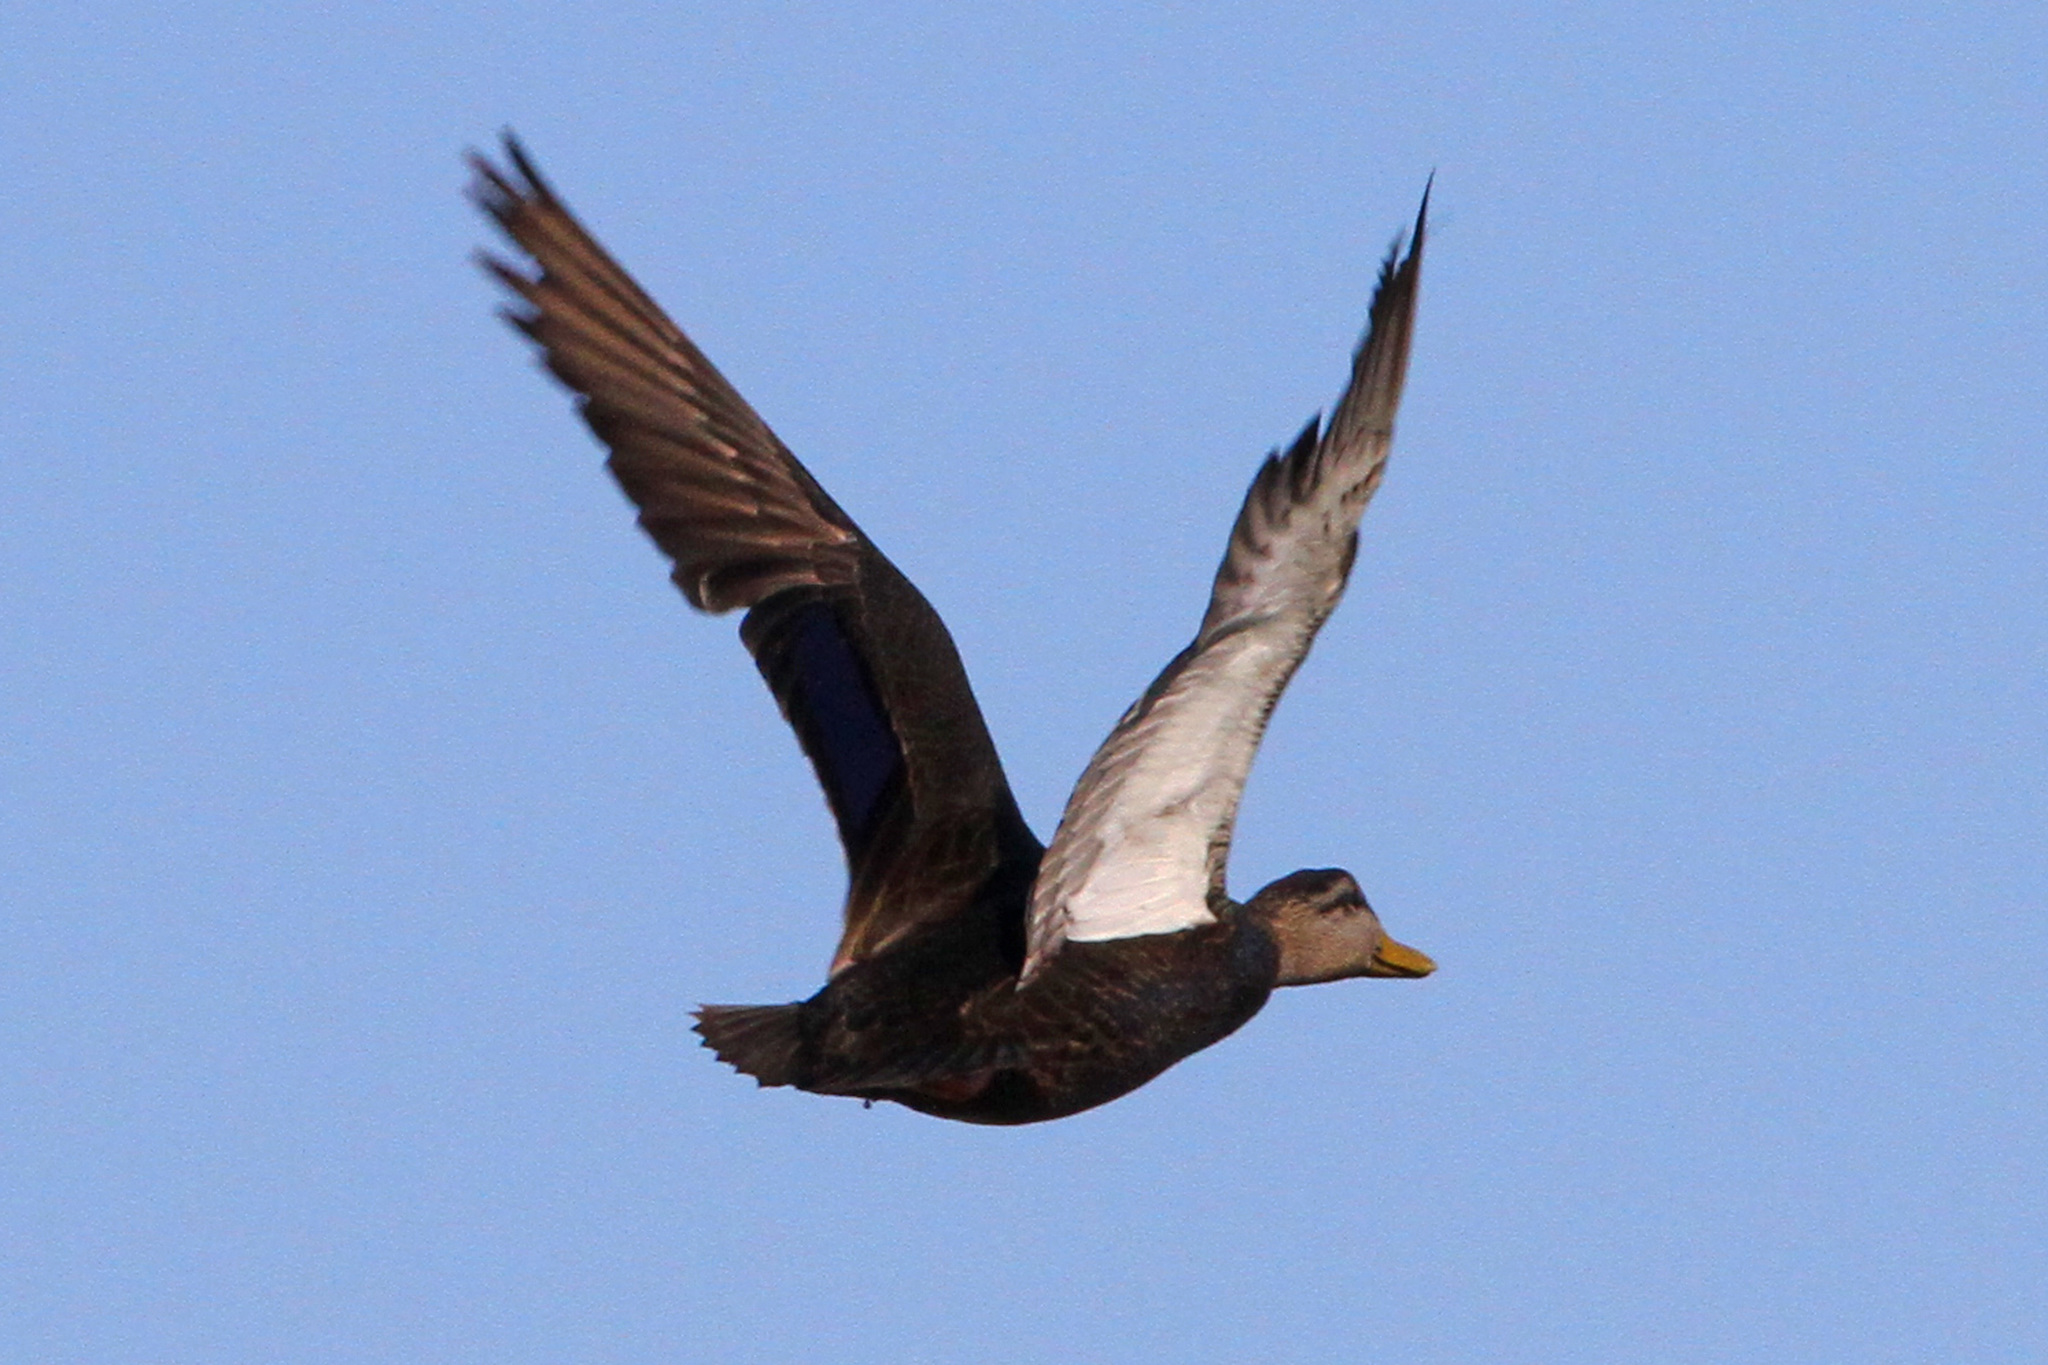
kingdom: Animalia
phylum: Chordata
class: Aves
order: Anseriformes
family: Anatidae
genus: Anas
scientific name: Anas rubripes
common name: American black duck
